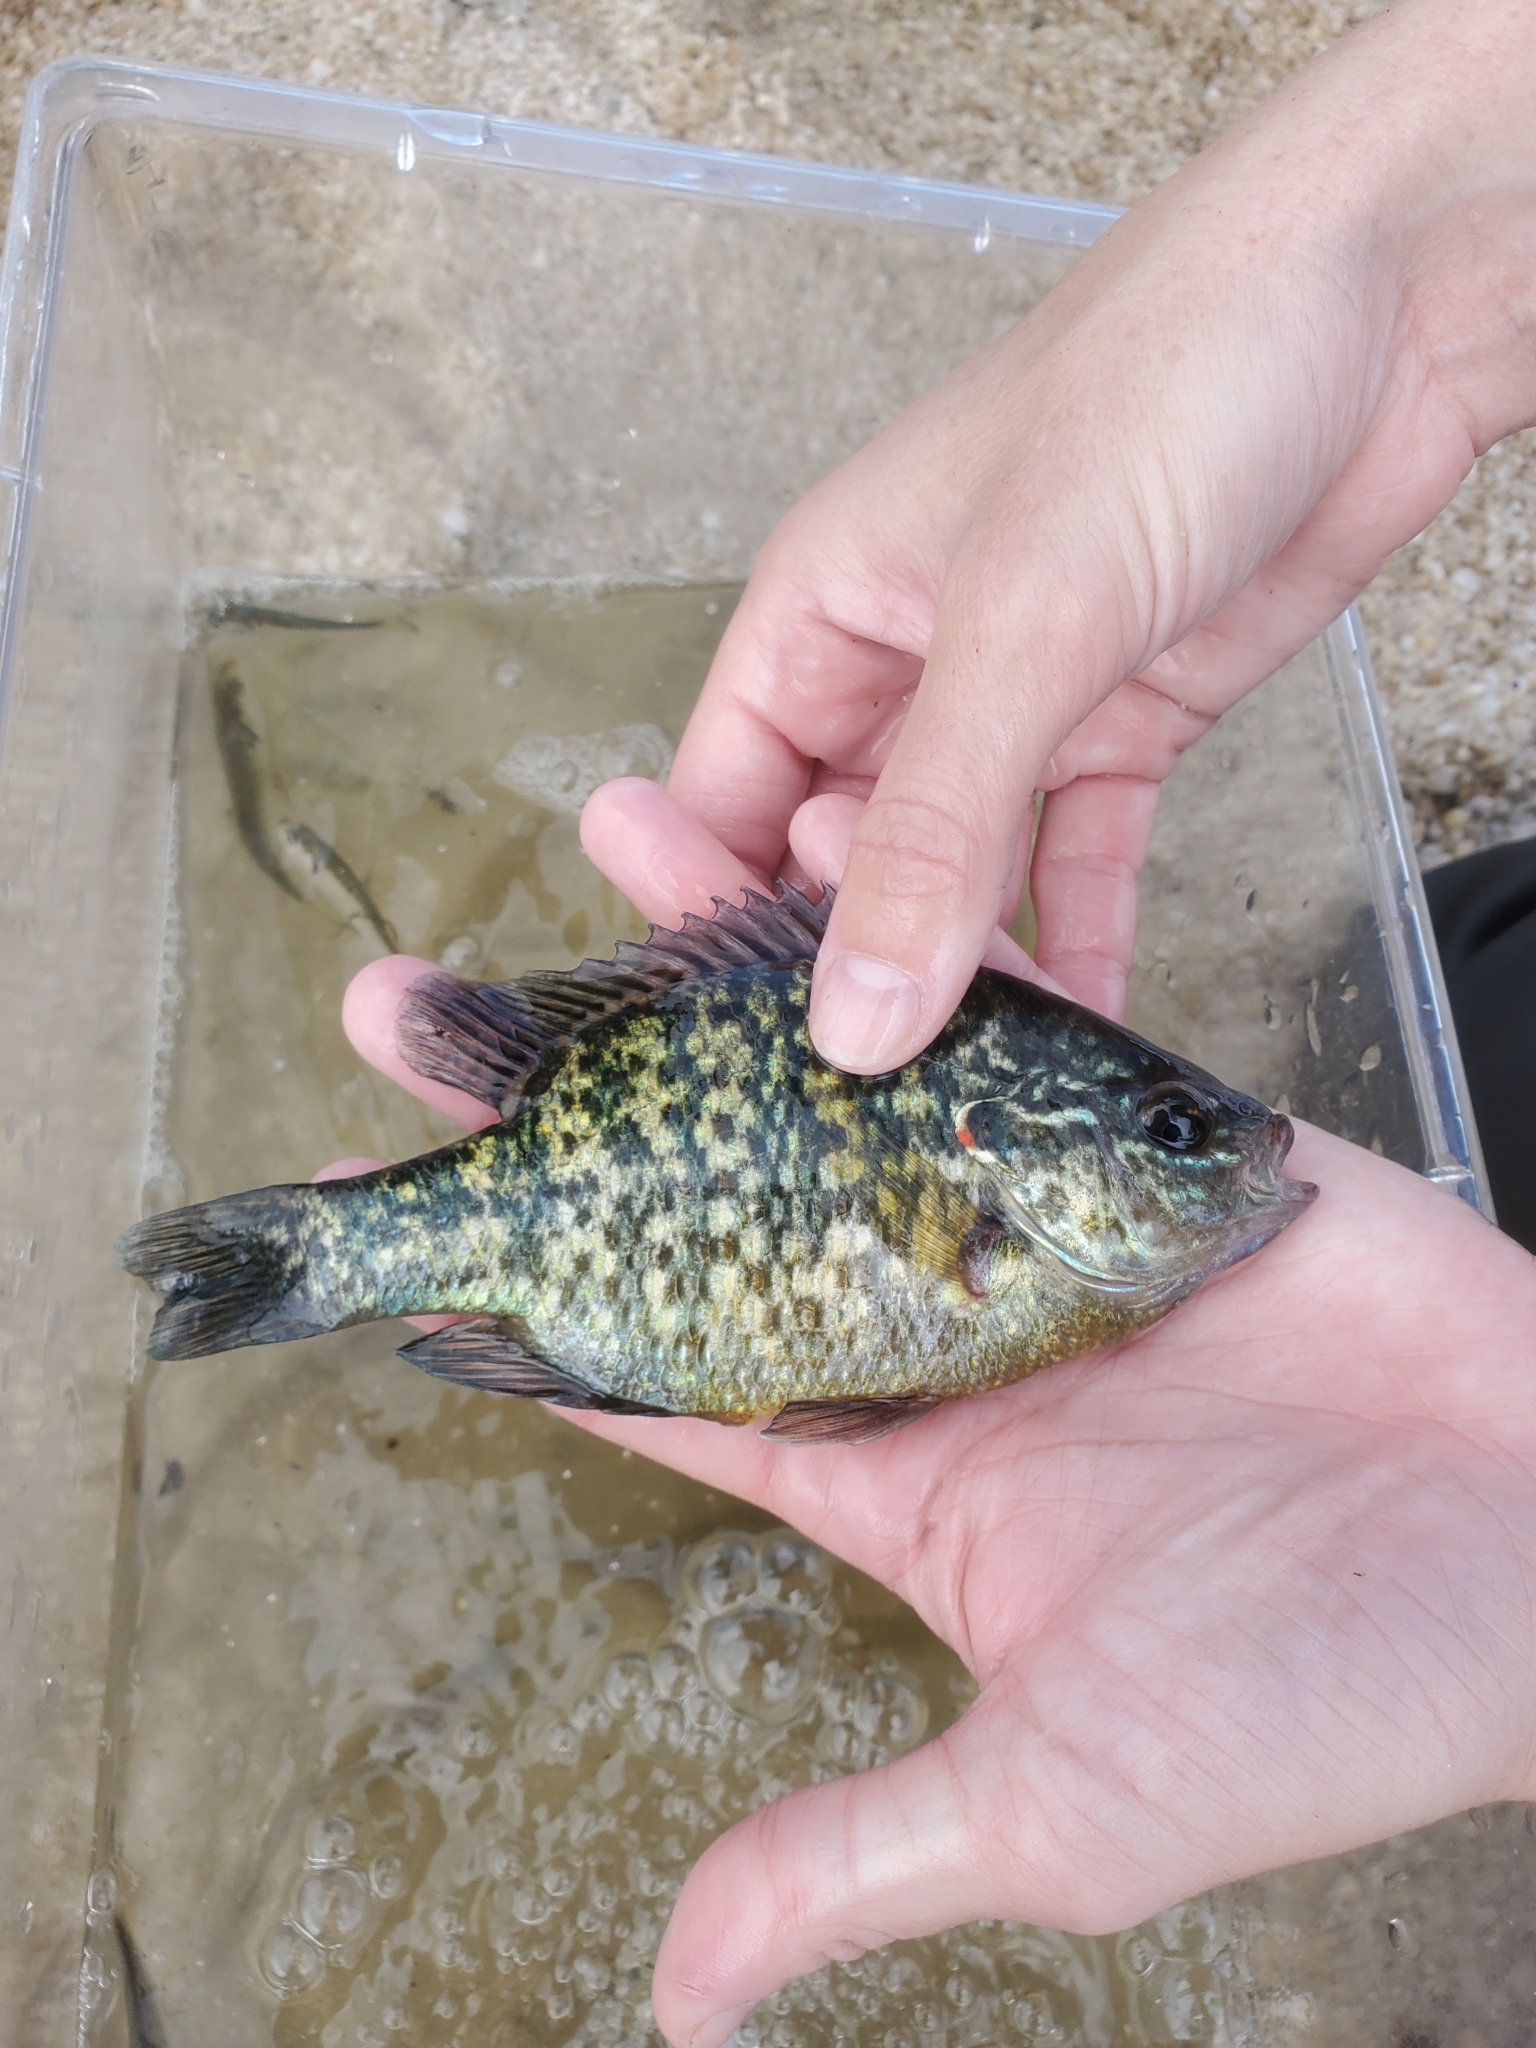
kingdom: Animalia
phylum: Chordata
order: Perciformes
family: Centrarchidae
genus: Lepomis
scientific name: Lepomis gibbosus
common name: Pumpkinseed
